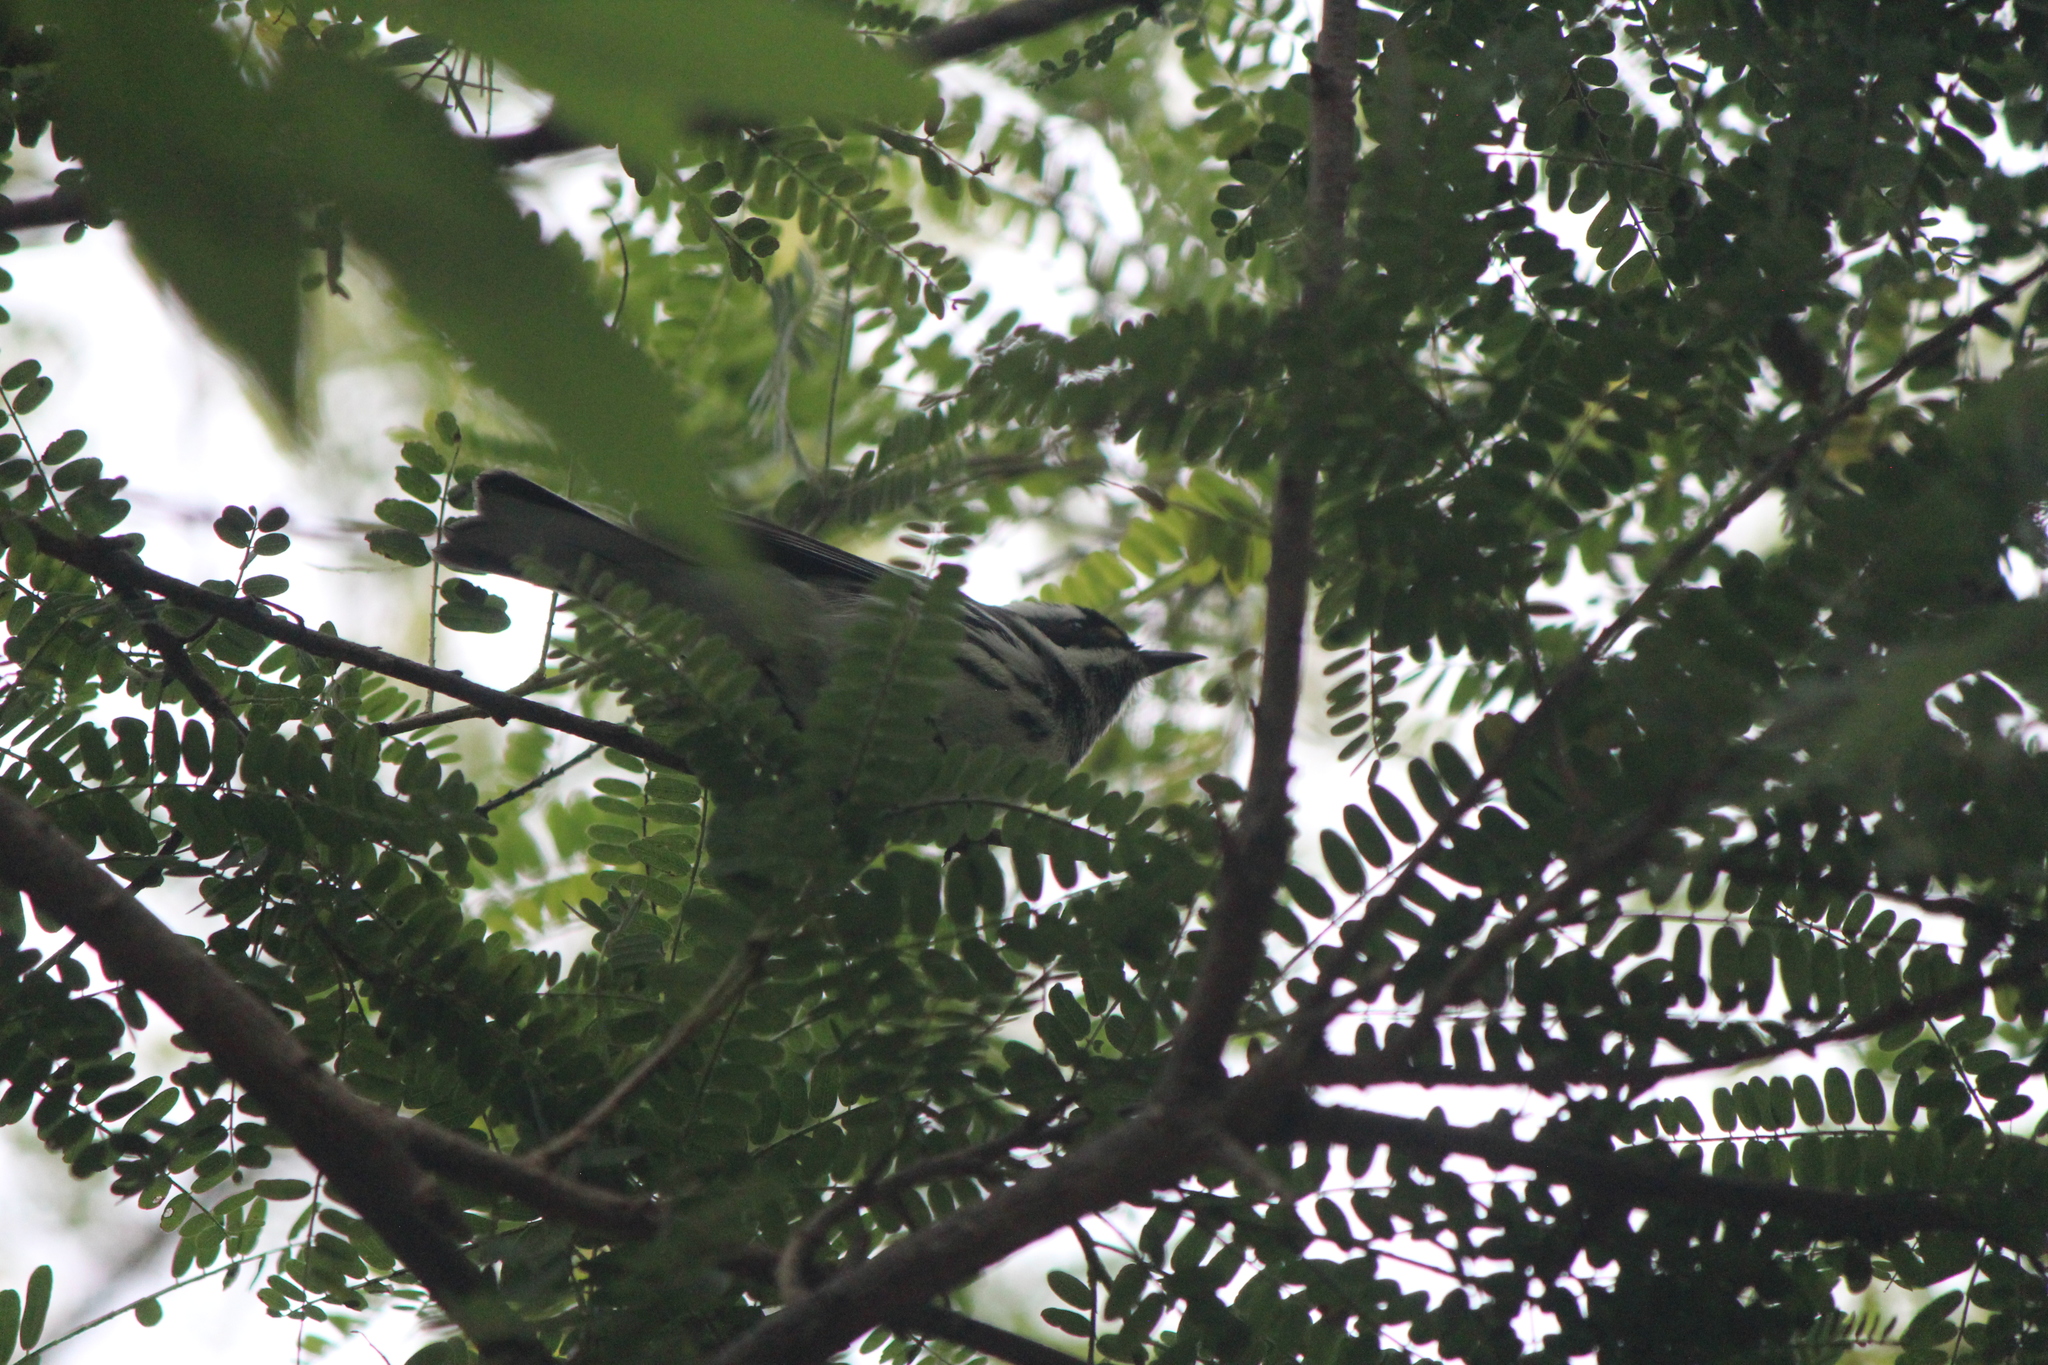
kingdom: Animalia
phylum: Chordata
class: Aves
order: Passeriformes
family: Parulidae
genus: Setophaga
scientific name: Setophaga nigrescens
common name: Black-throated gray warbler
